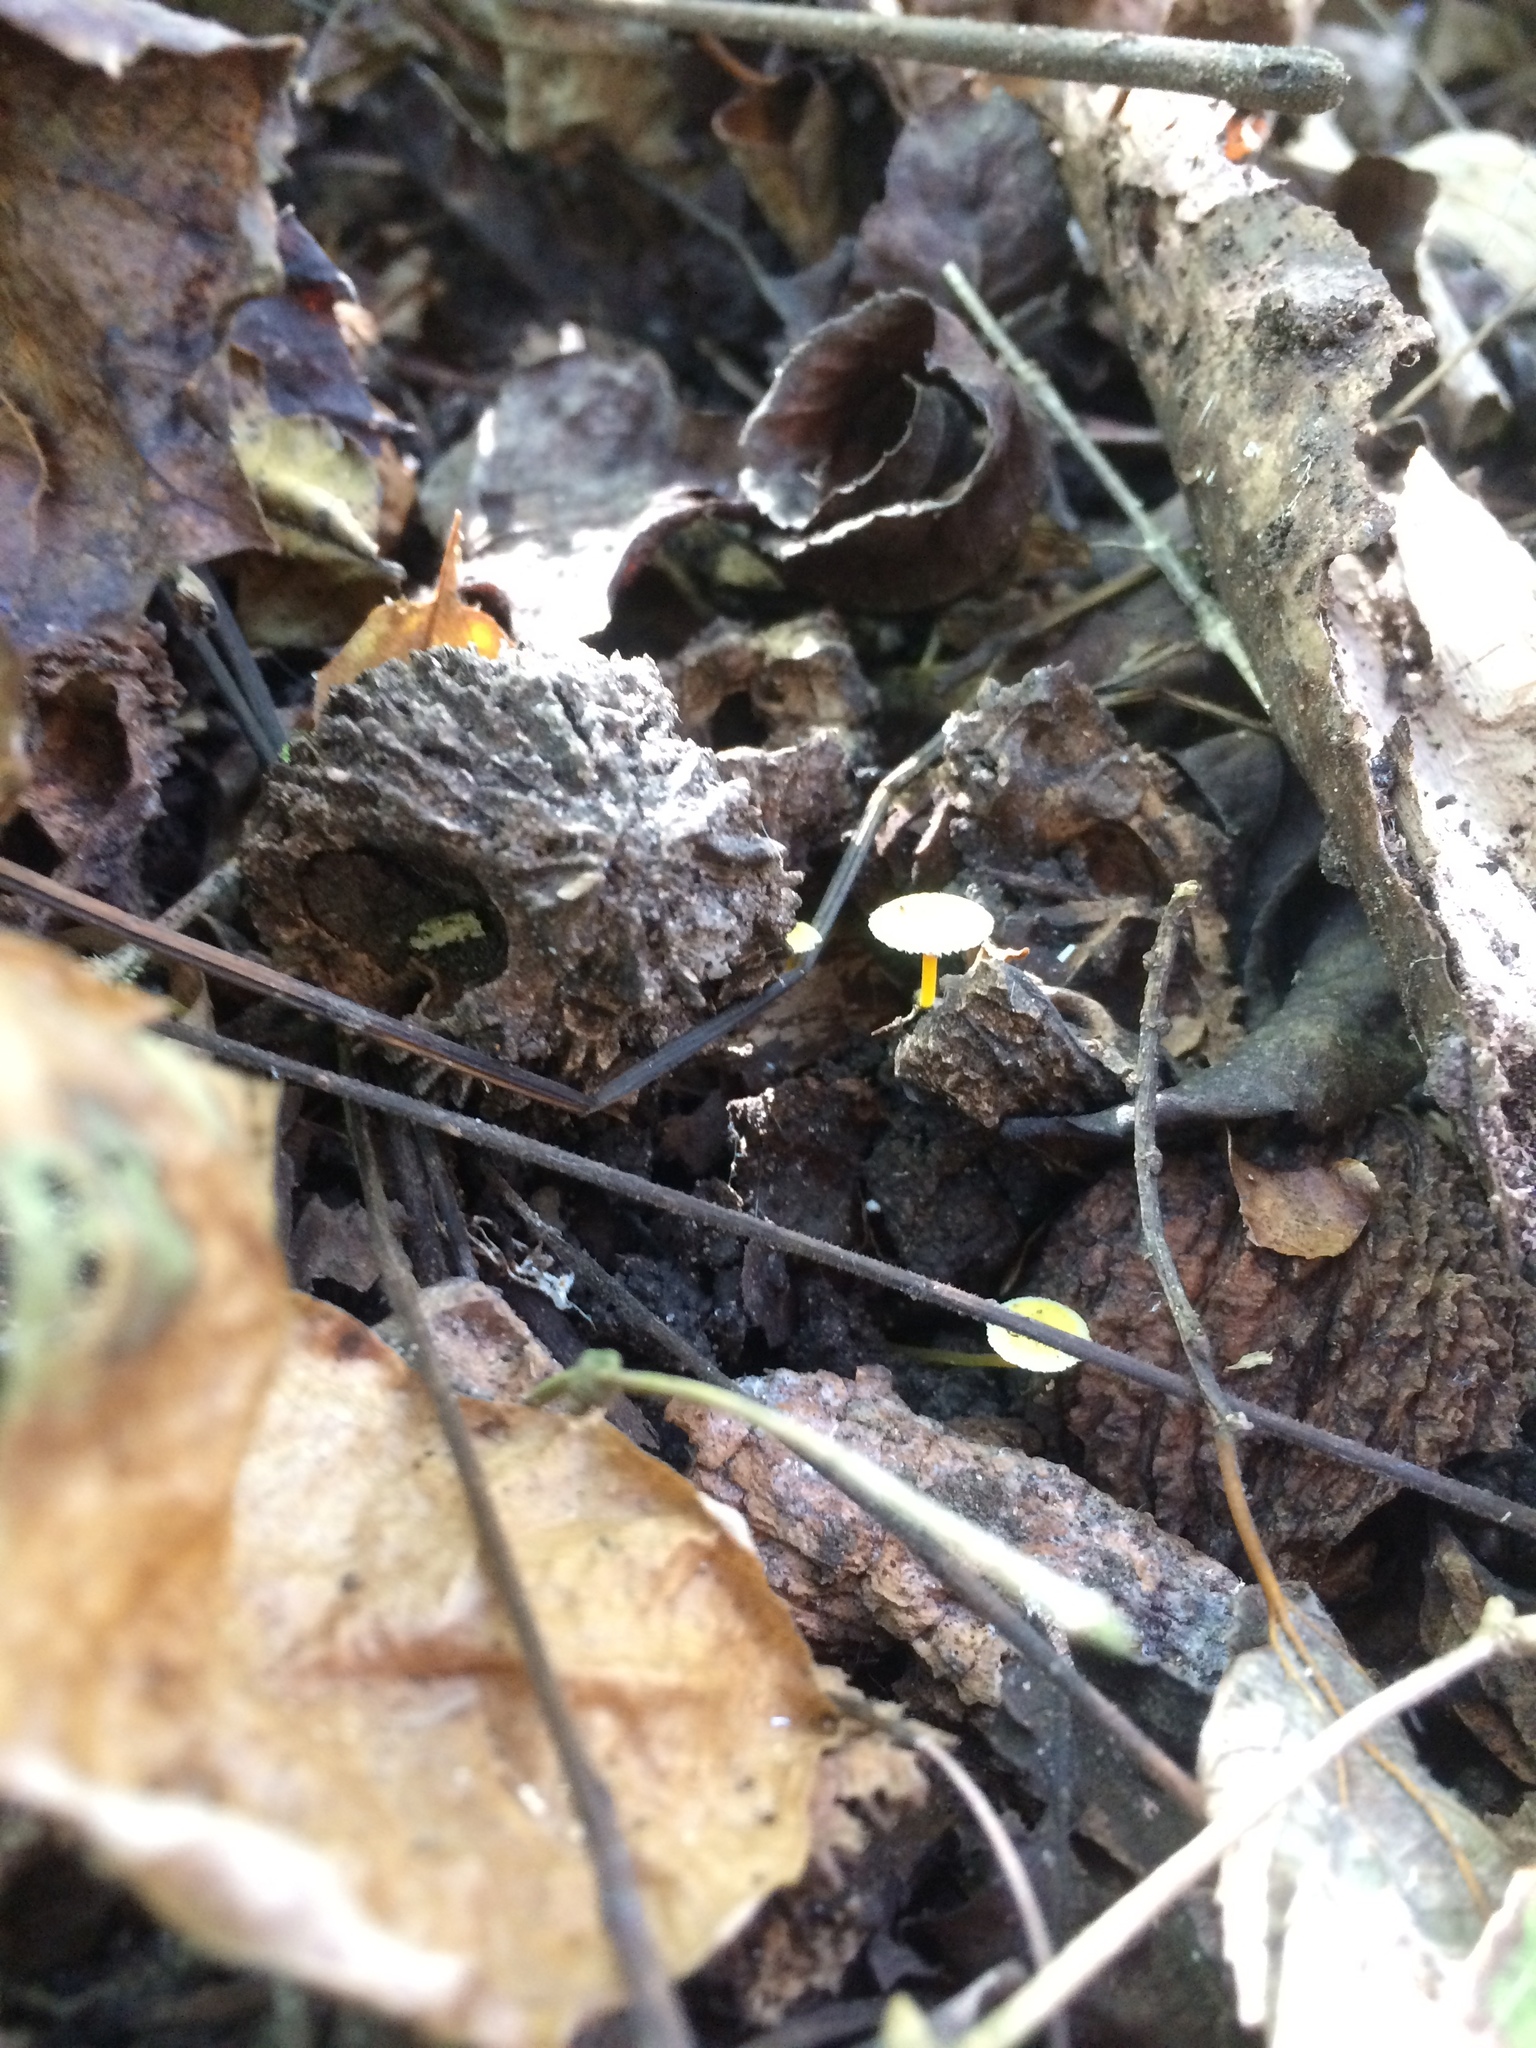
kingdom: Fungi
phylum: Basidiomycota
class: Agaricomycetes
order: Agaricales
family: Mycenaceae
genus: Mycena
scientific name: Mycena crocea
